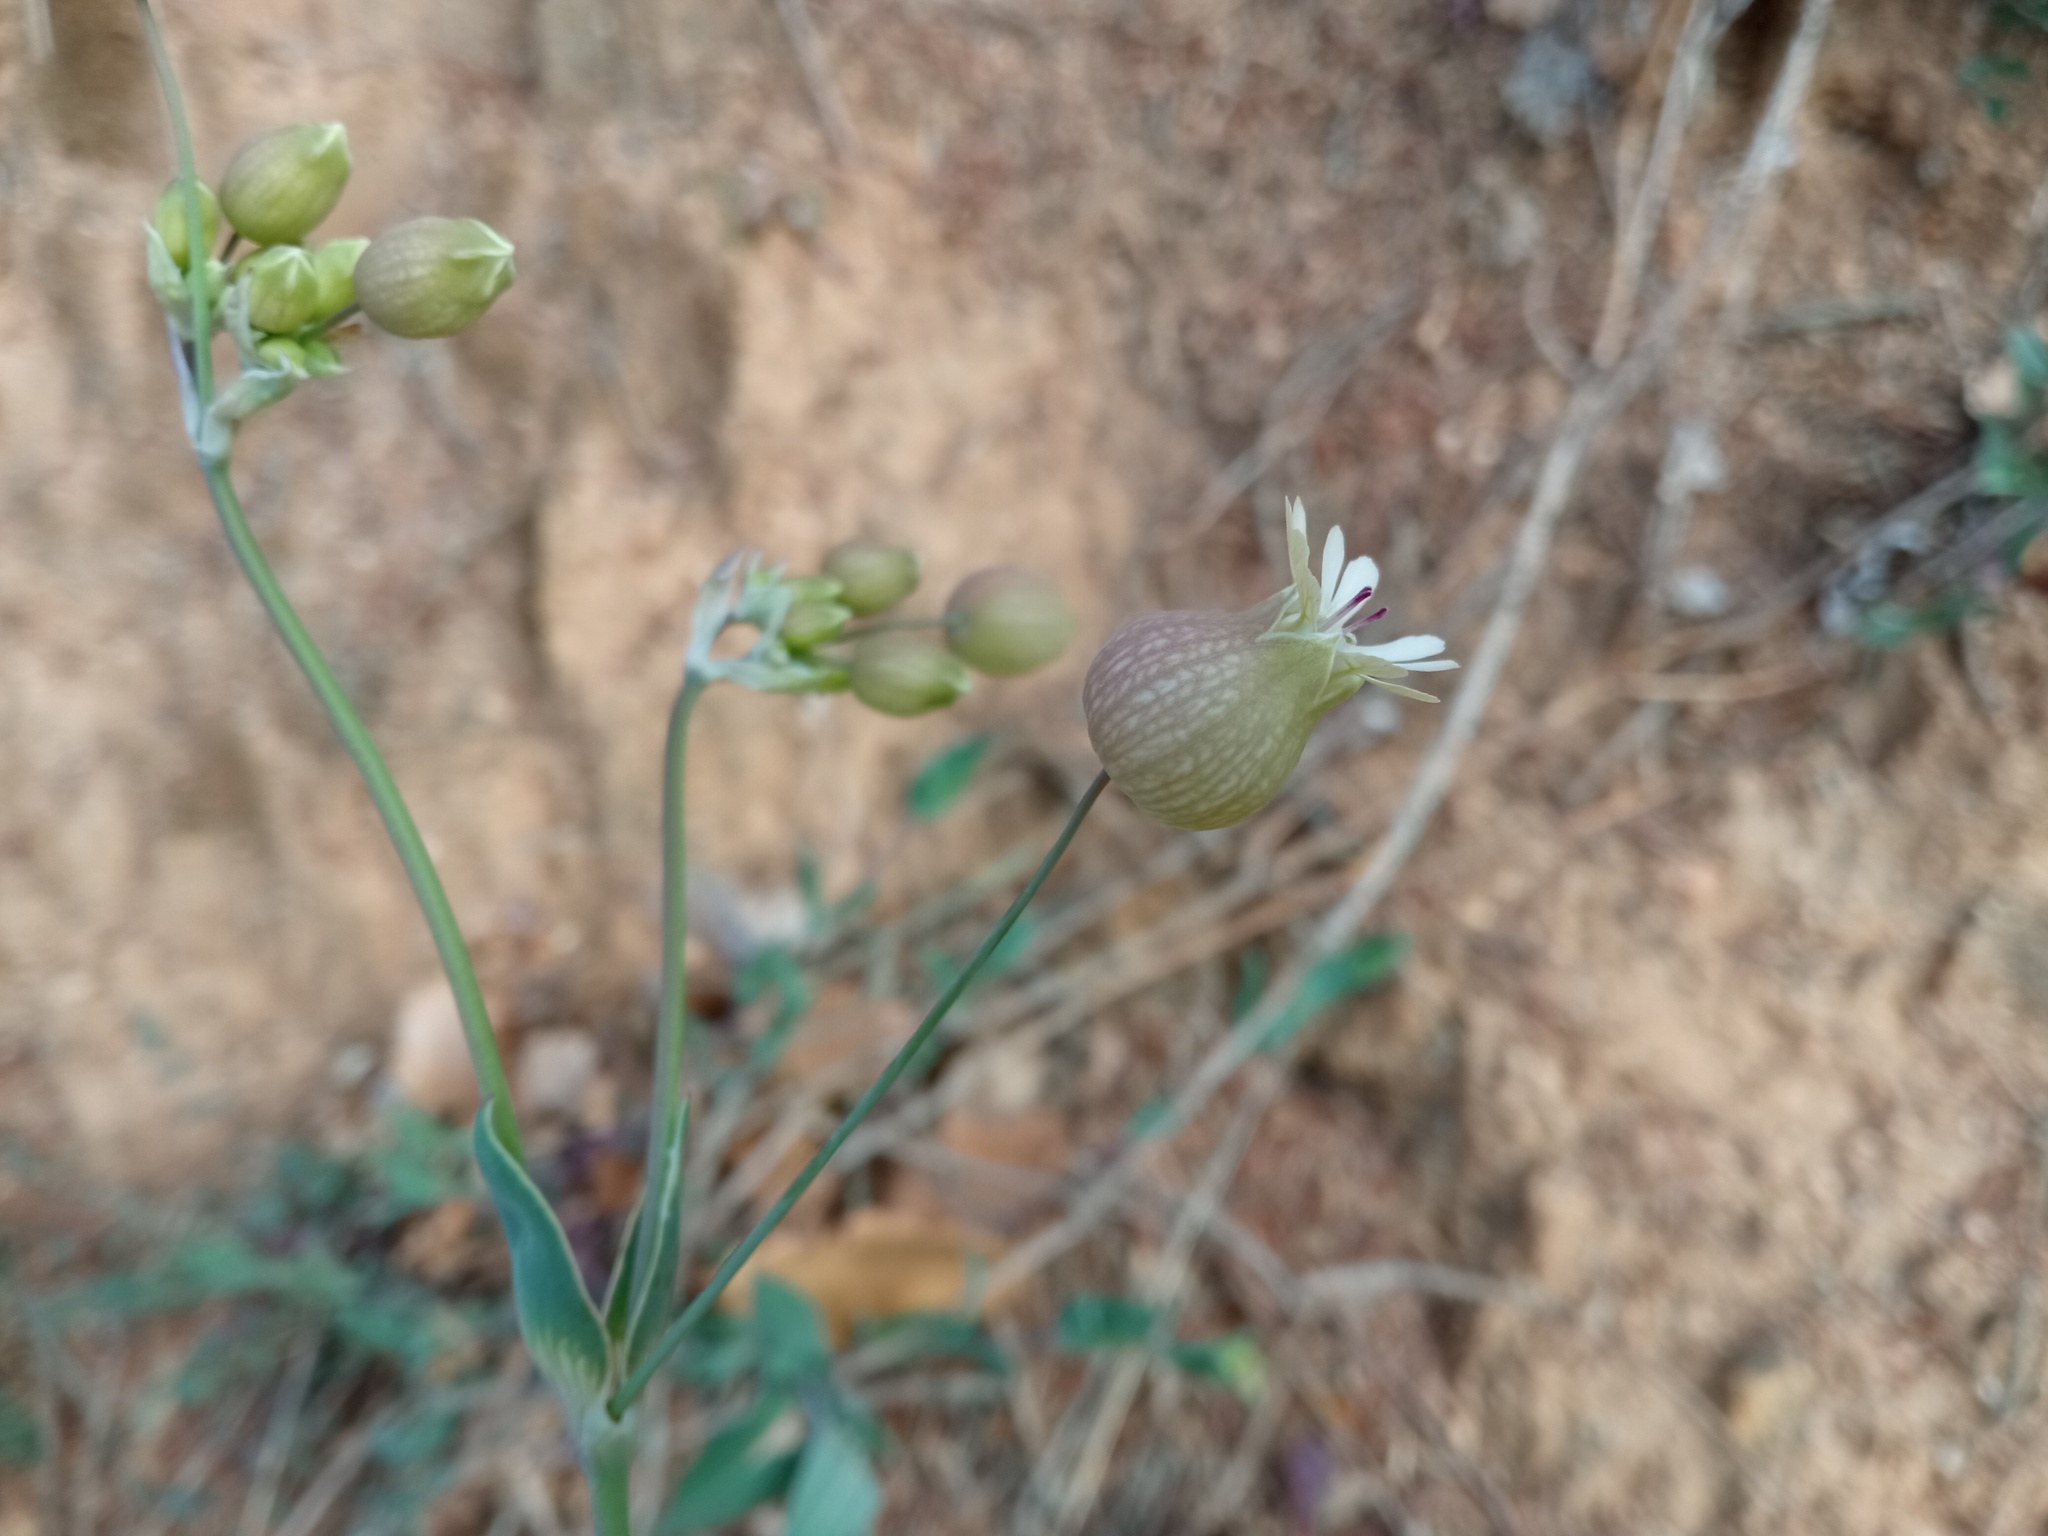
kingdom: Plantae
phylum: Tracheophyta
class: Magnoliopsida
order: Caryophyllales
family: Caryophyllaceae
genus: Silene
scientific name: Silene vulgaris
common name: Bladder campion
